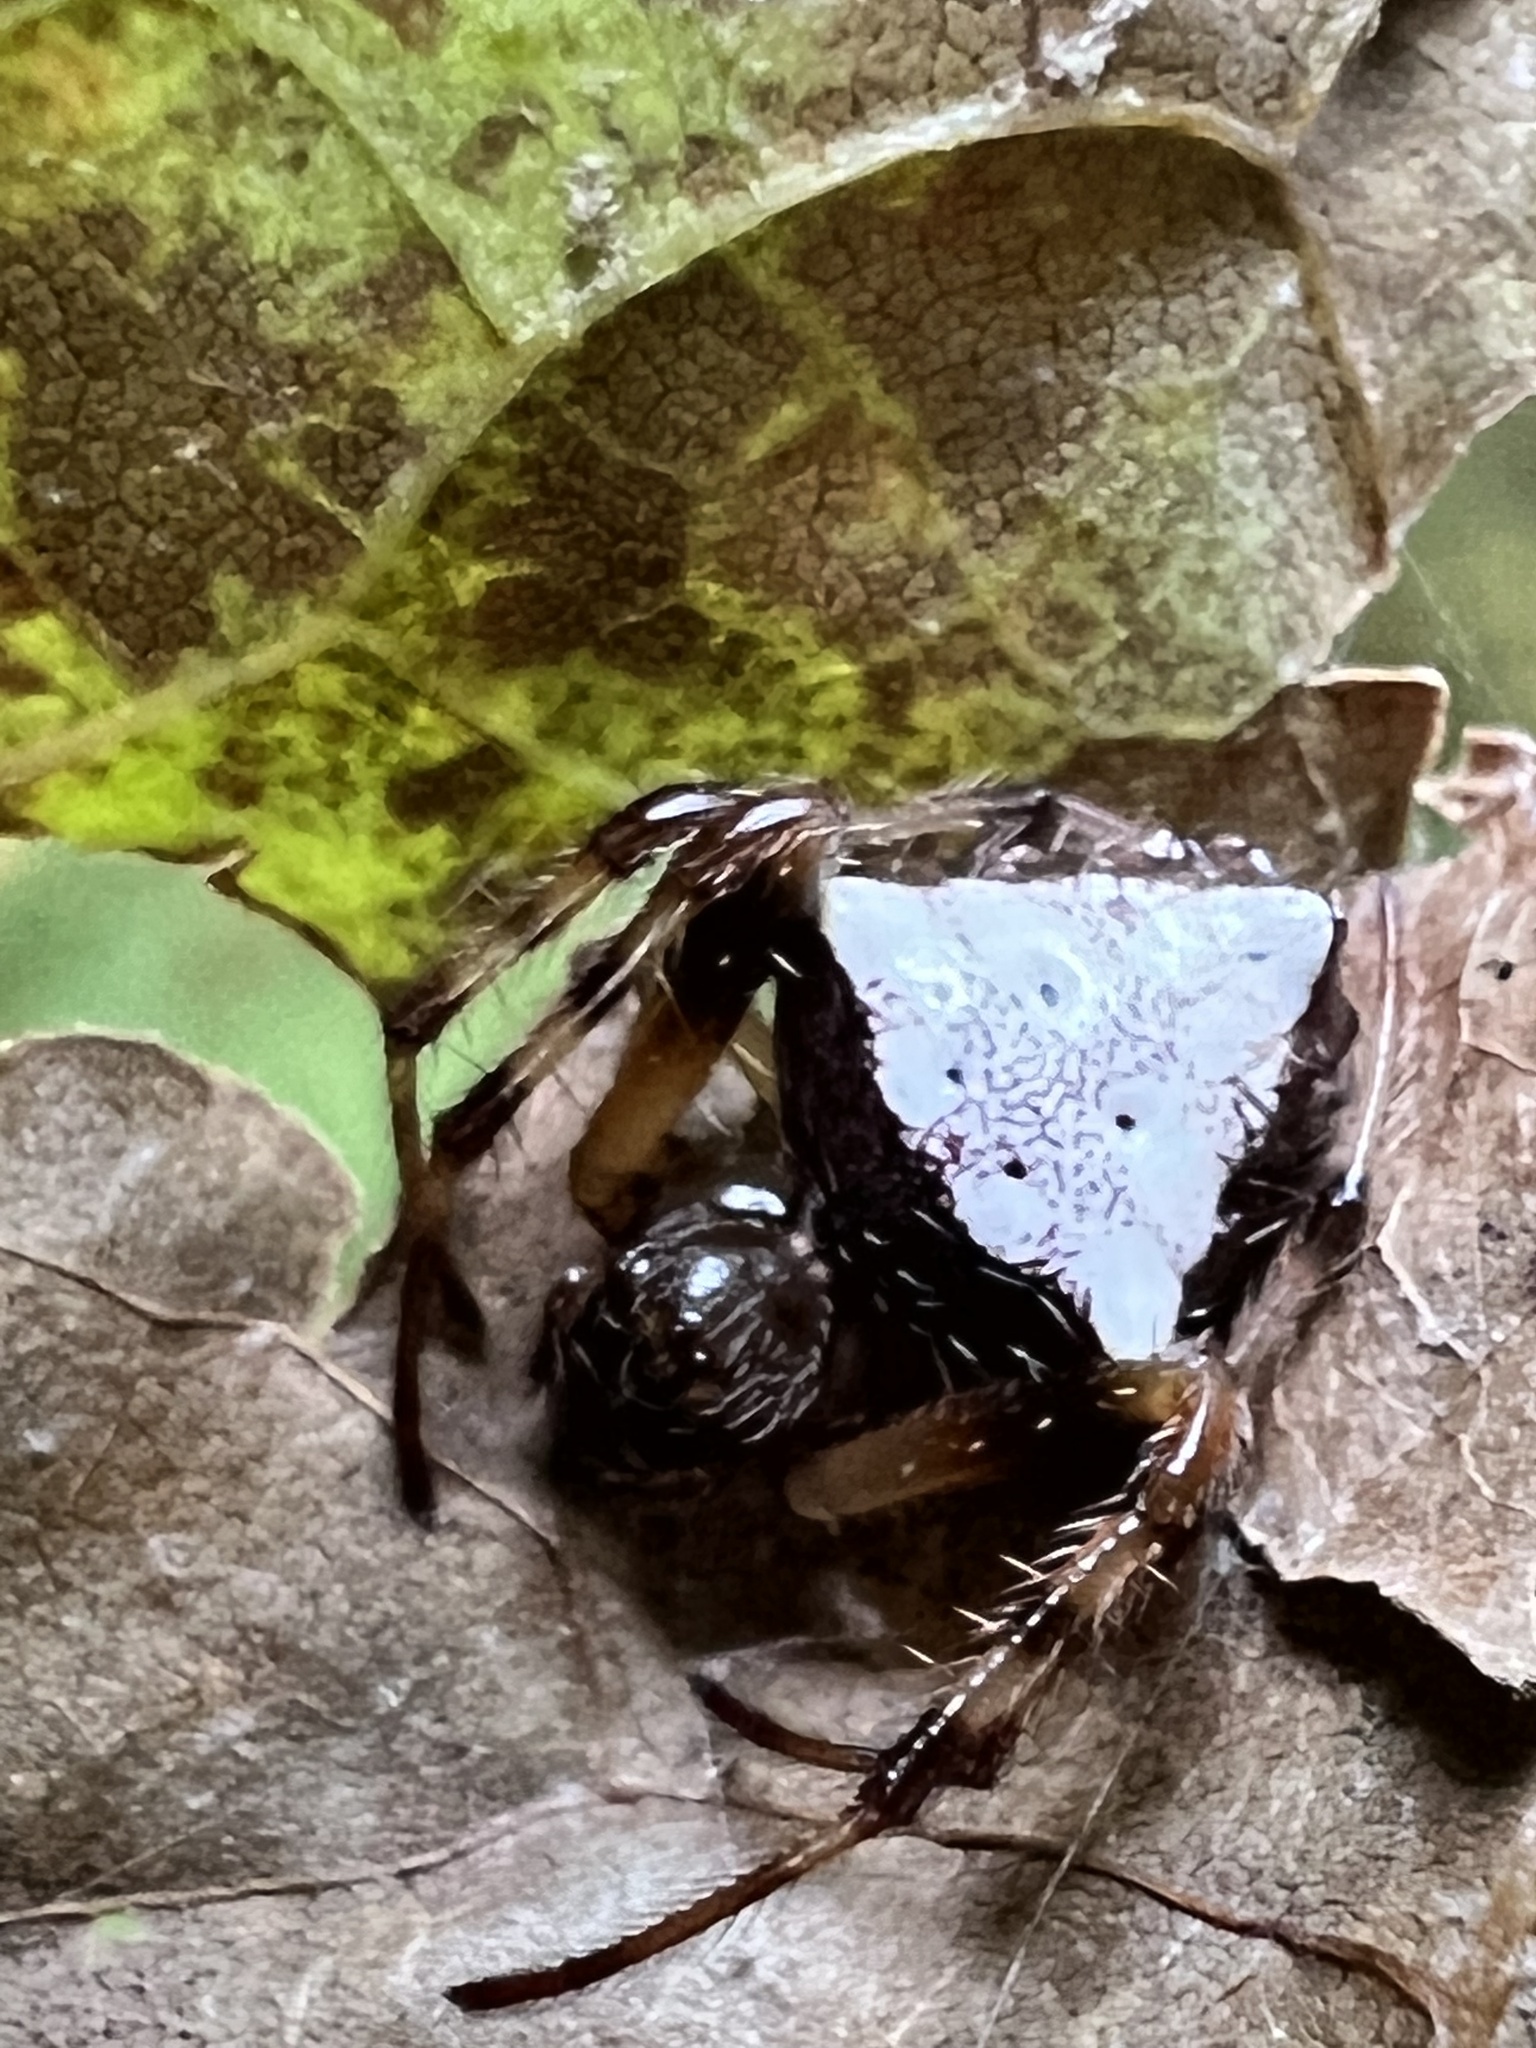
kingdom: Animalia
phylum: Arthropoda
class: Arachnida
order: Araneae
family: Araneidae
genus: Verrucosa
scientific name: Verrucosa arenata
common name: Orb weavers
